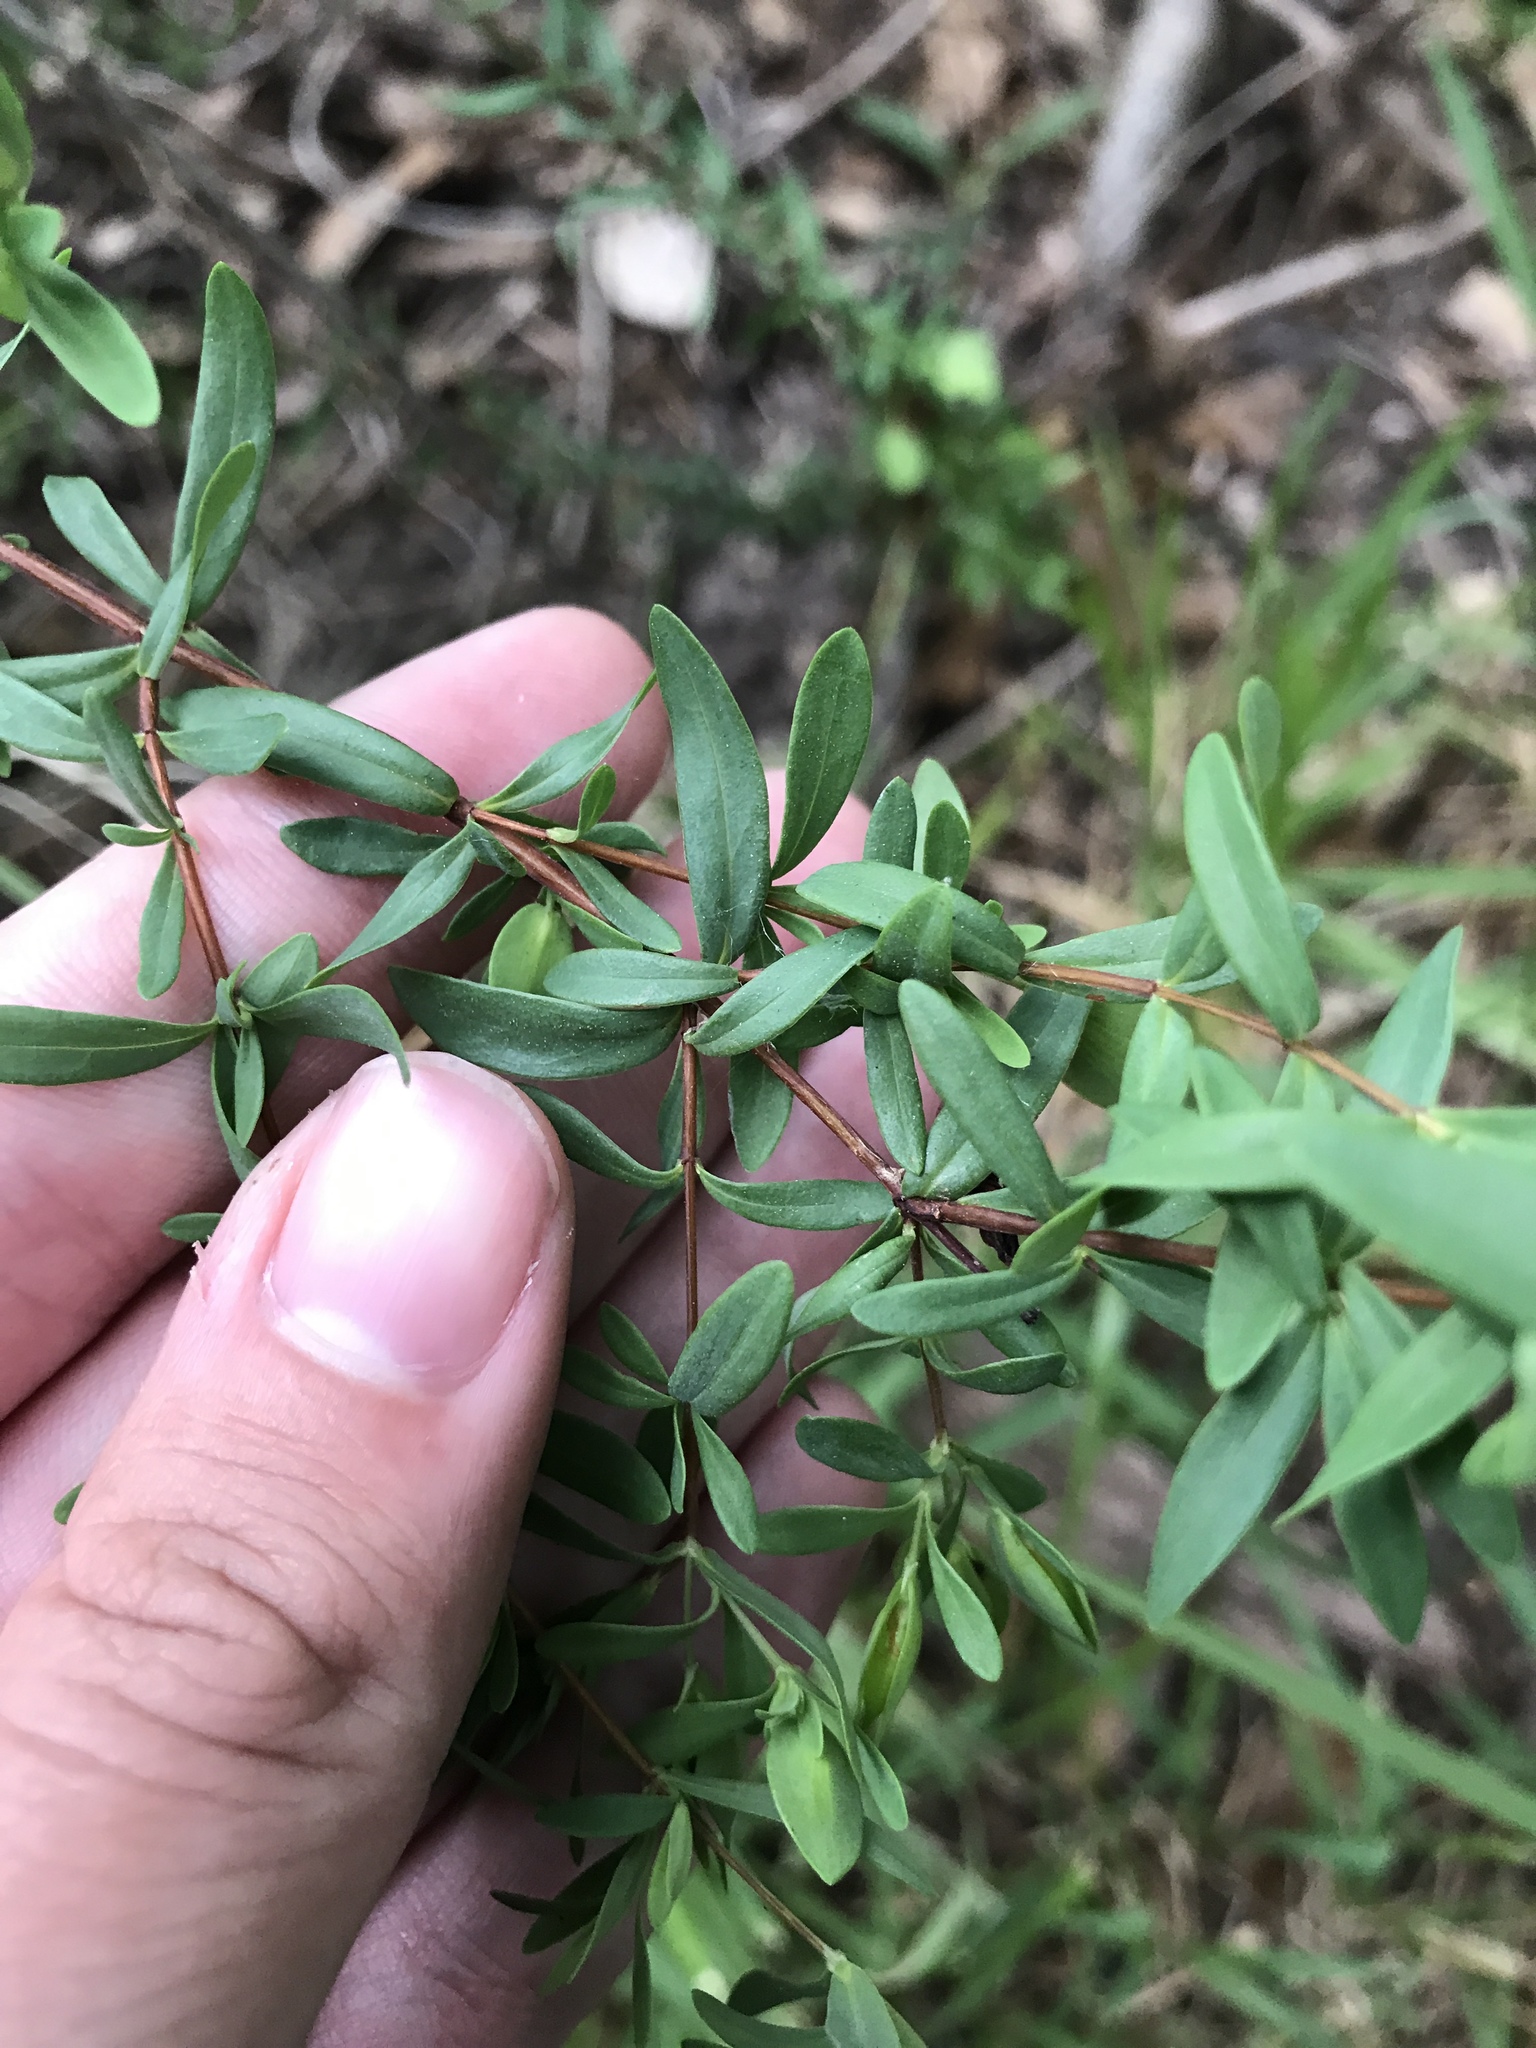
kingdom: Plantae
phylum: Tracheophyta
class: Magnoliopsida
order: Malpighiales
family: Hypericaceae
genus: Hypericum
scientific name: Hypericum hypericoides
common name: St. andrew's cross
